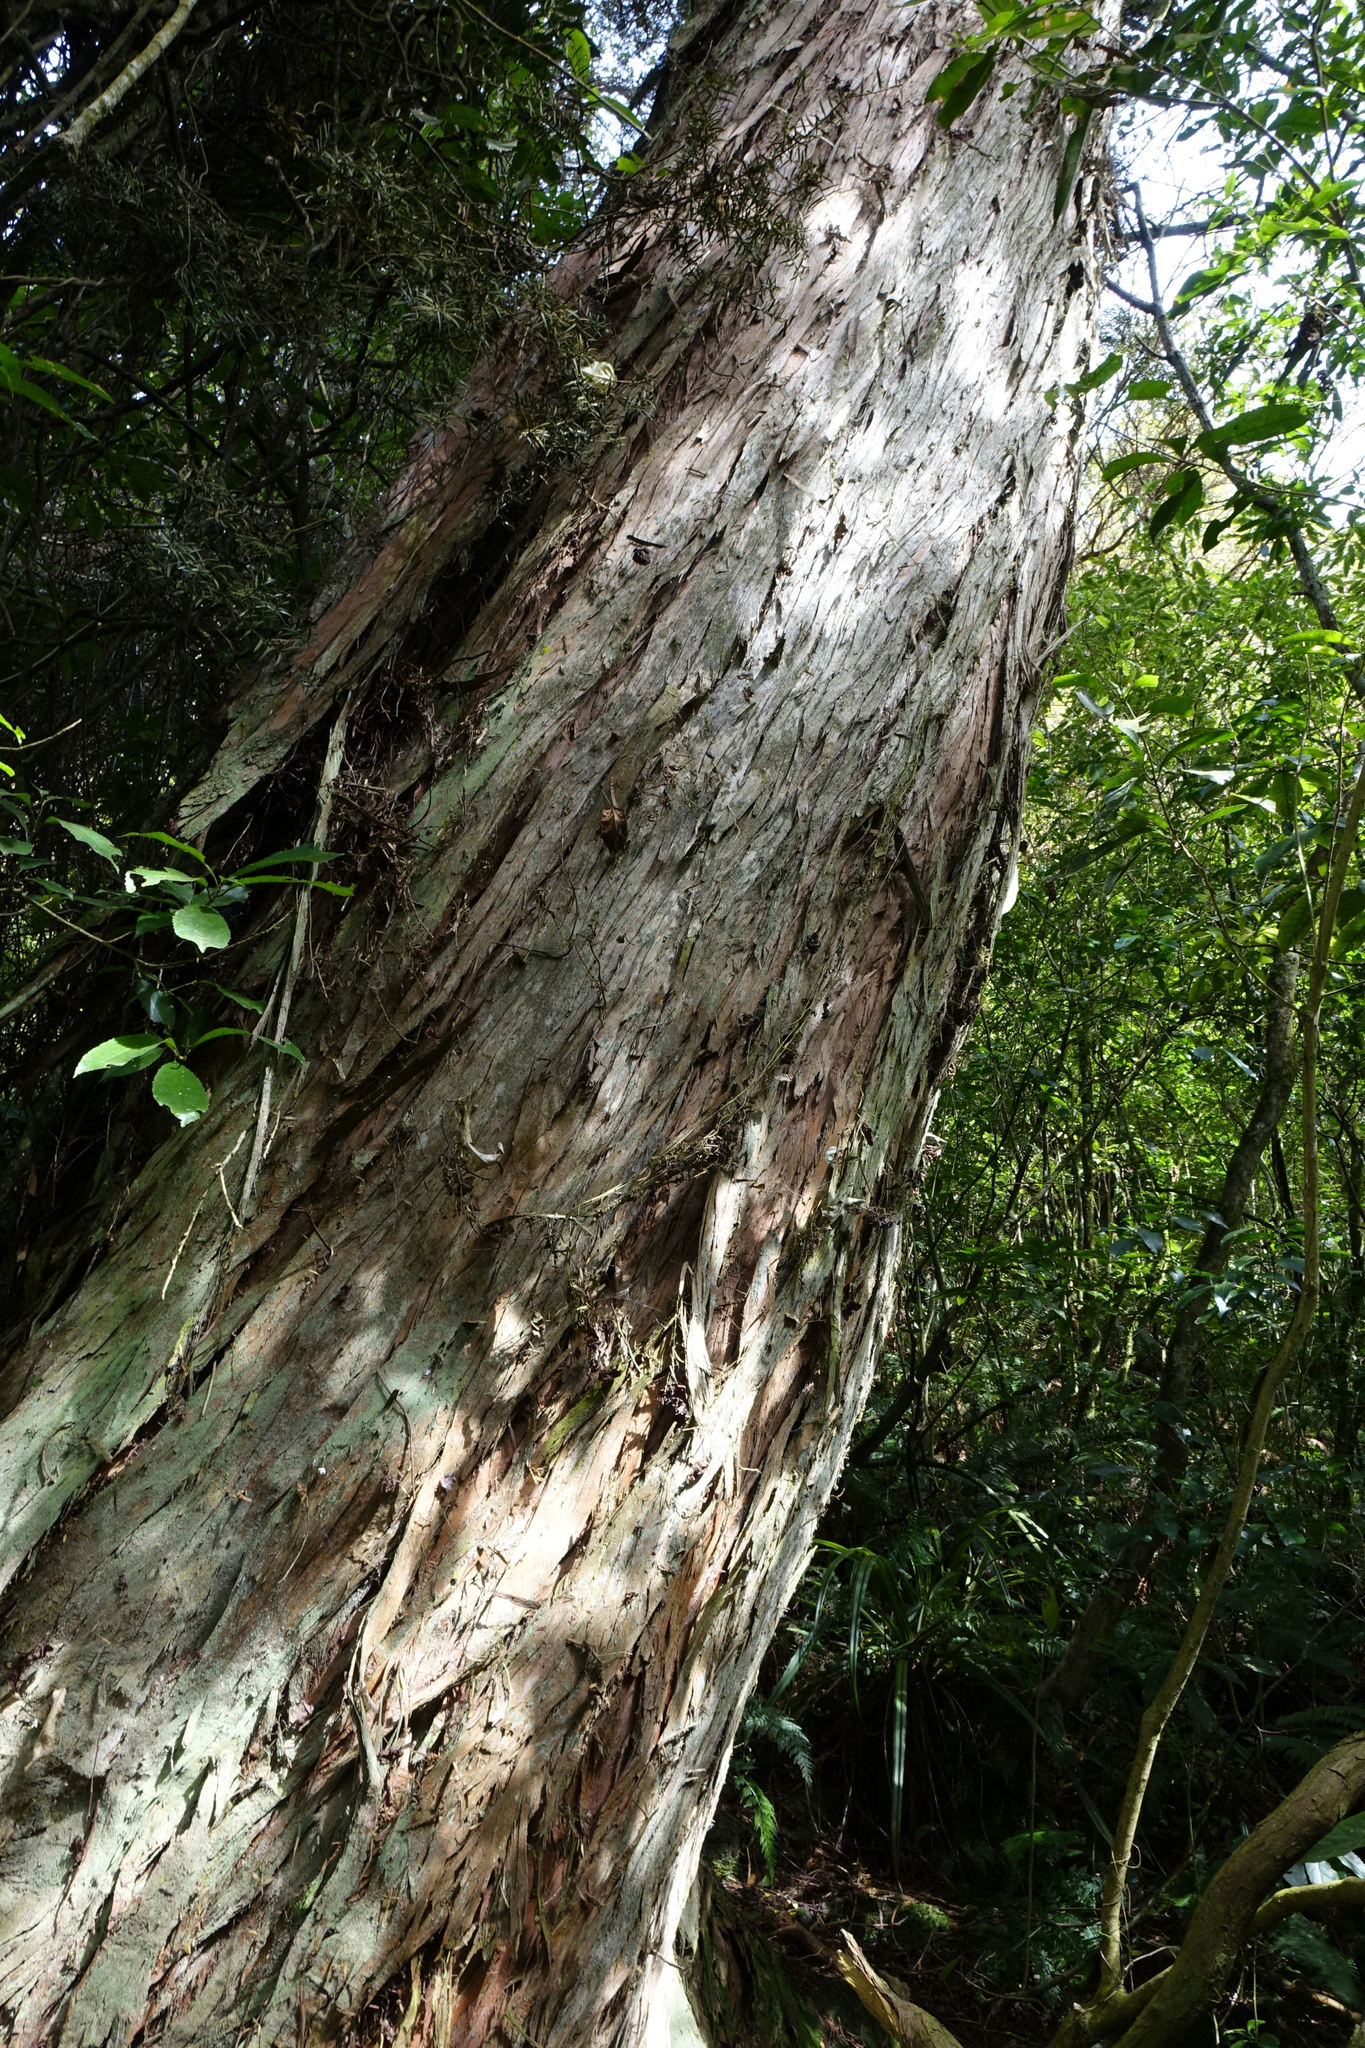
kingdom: Plantae
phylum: Tracheophyta
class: Pinopsida
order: Pinales
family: Podocarpaceae
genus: Podocarpus
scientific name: Podocarpus totara
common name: Totara
